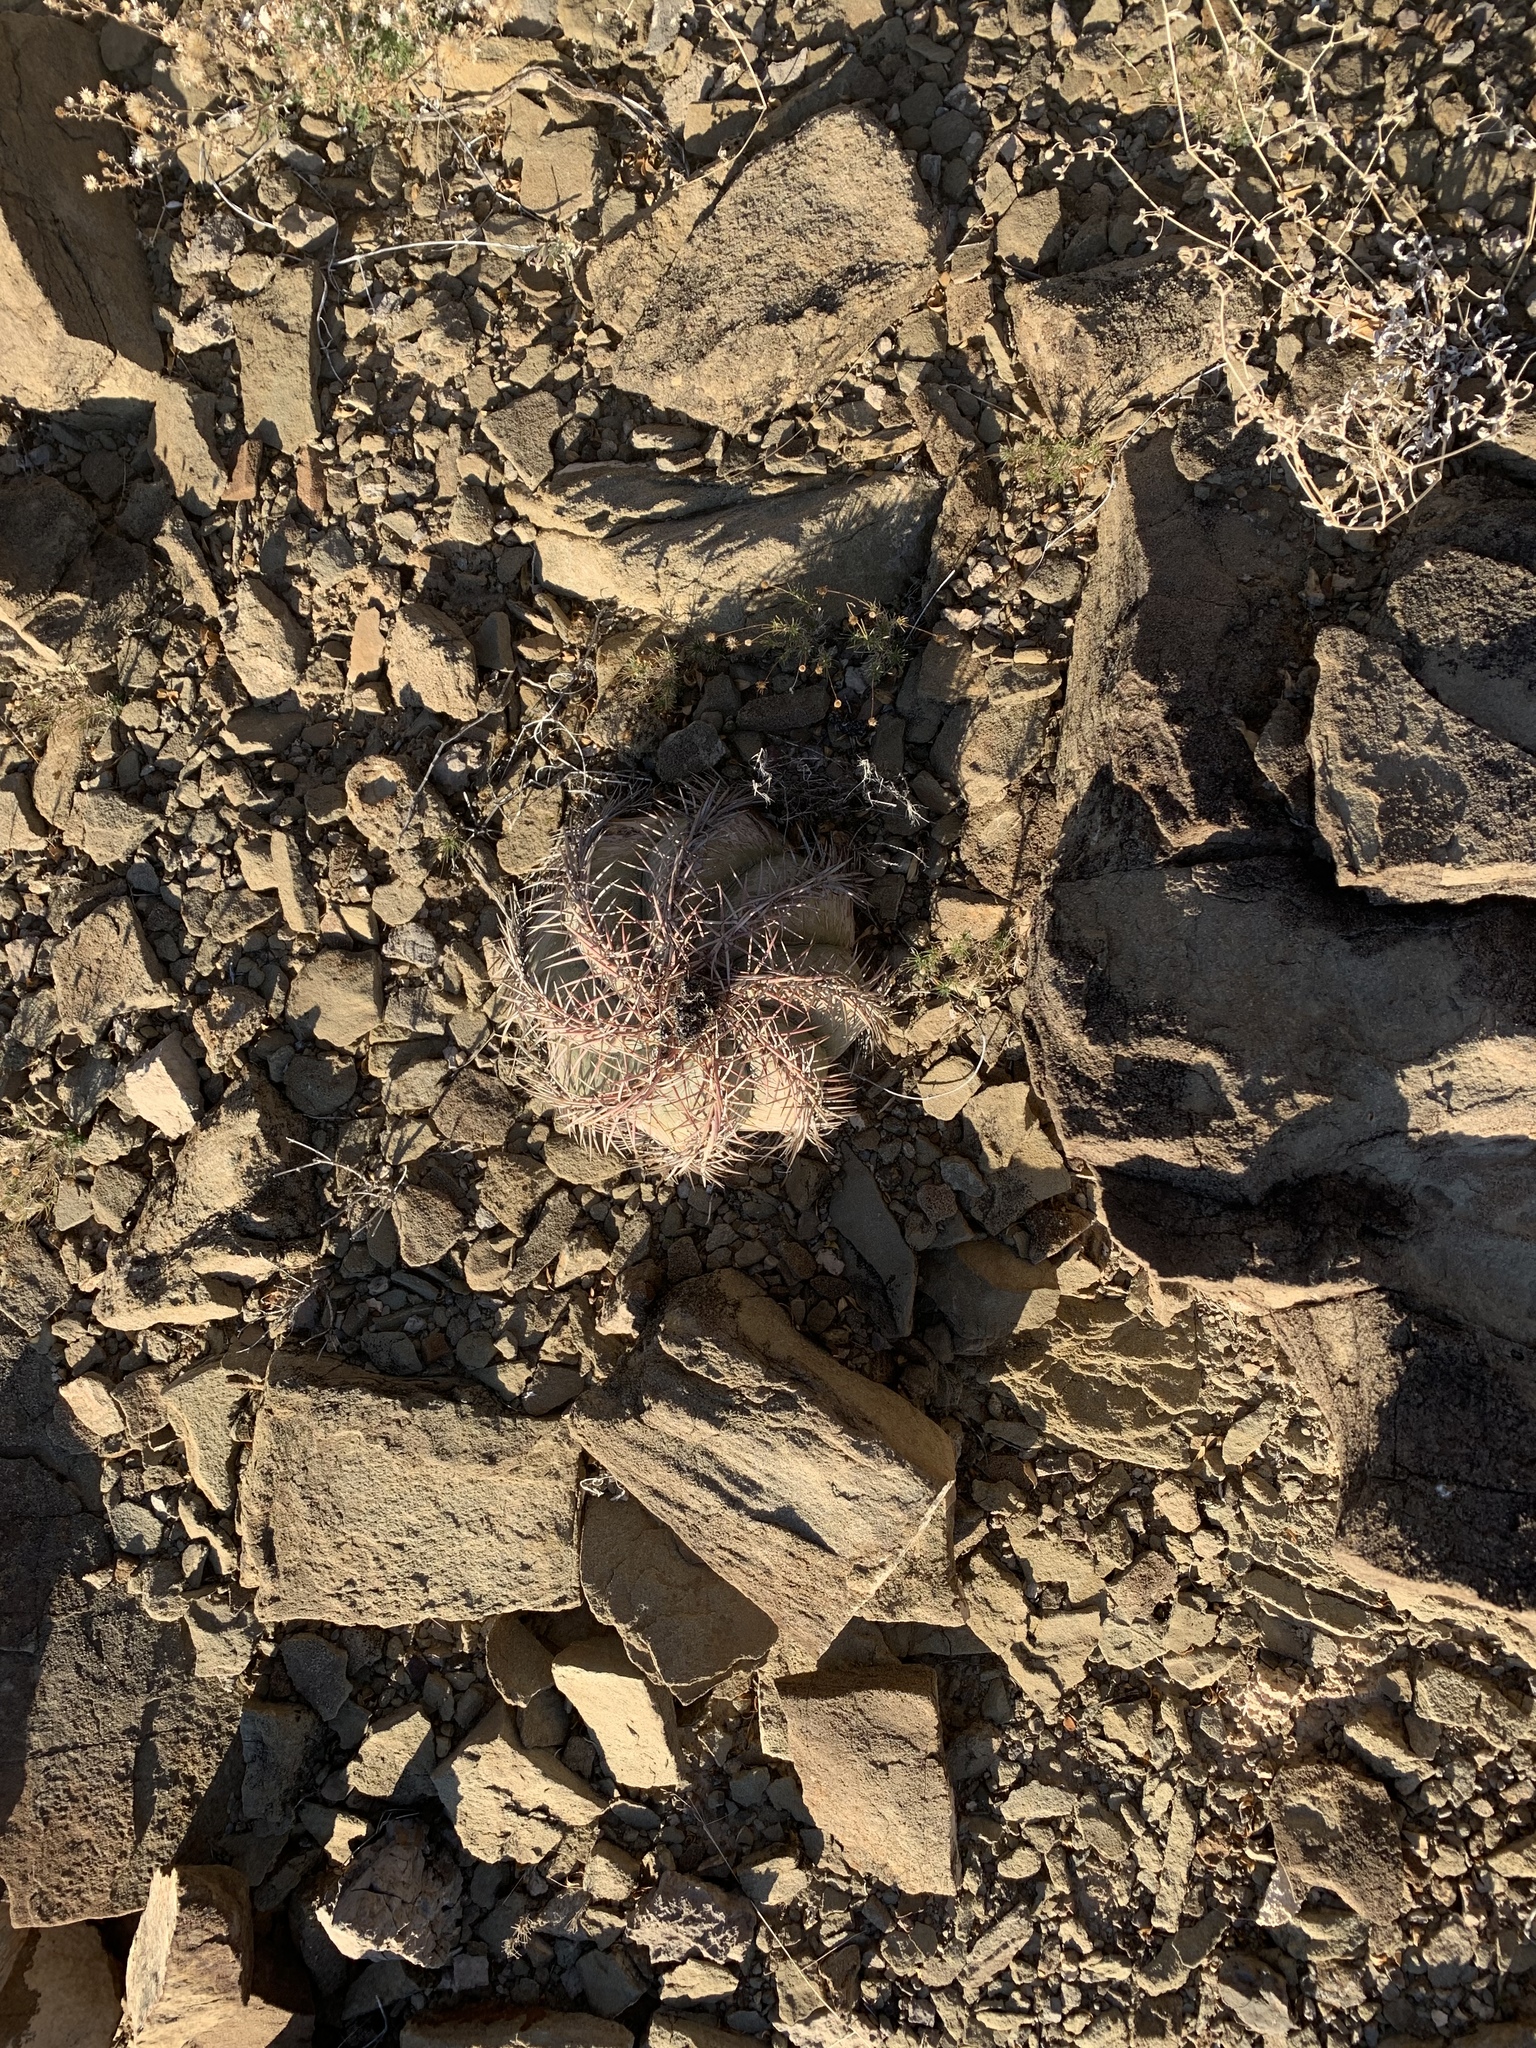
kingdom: Plantae
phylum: Tracheophyta
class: Magnoliopsida
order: Caryophyllales
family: Cactaceae
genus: Echinocactus
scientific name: Echinocactus horizonthalonius
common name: Devilshead
